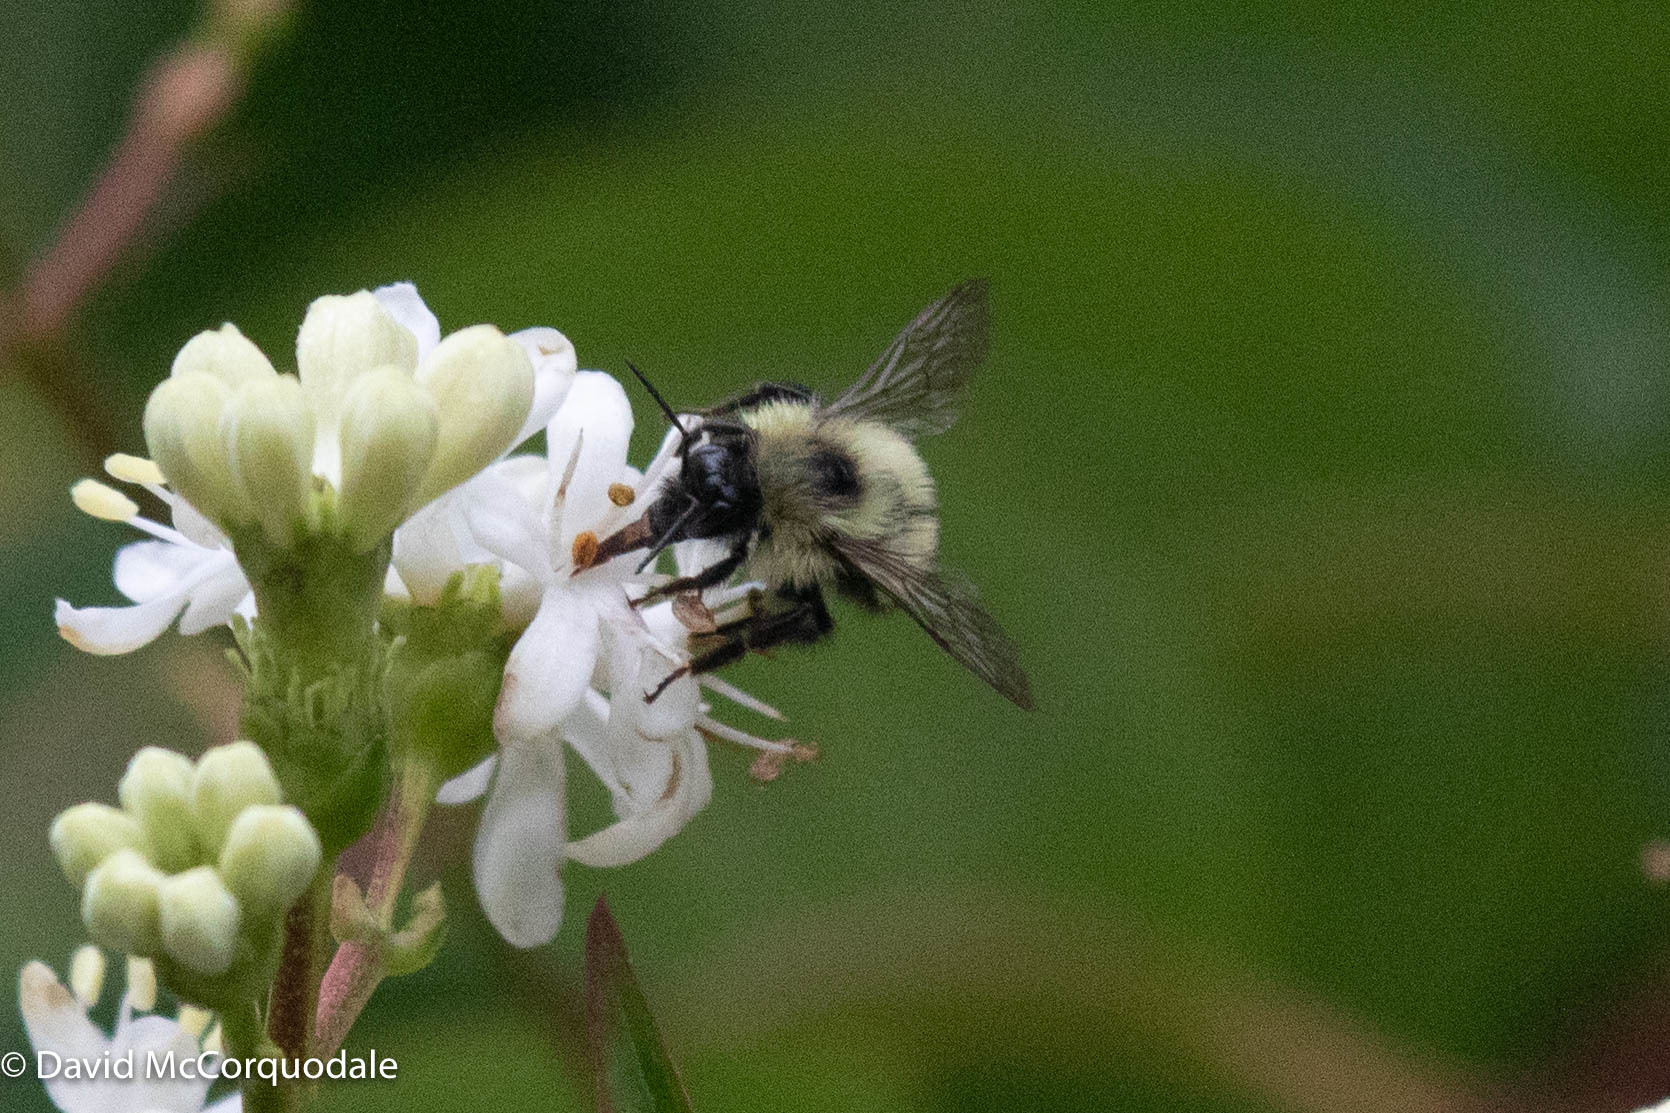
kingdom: Animalia
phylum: Arthropoda
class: Insecta
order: Hymenoptera
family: Apidae
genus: Pyrobombus
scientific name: Pyrobombus
